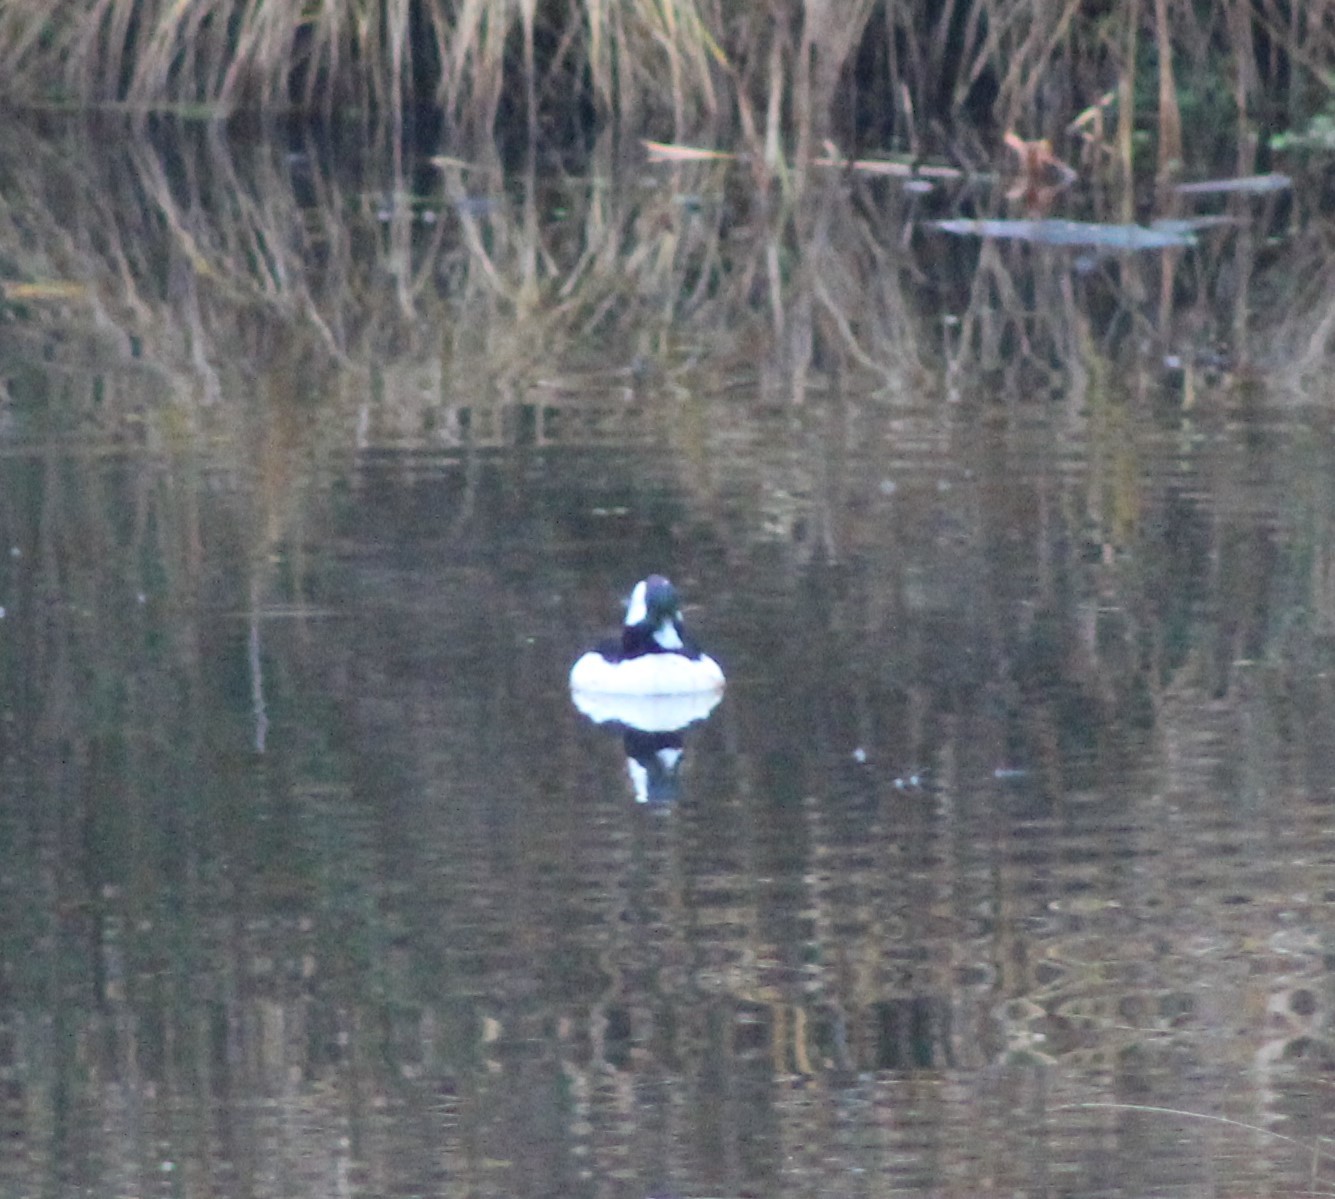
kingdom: Animalia
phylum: Chordata
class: Aves
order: Anseriformes
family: Anatidae
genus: Bucephala
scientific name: Bucephala albeola
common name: Bufflehead
